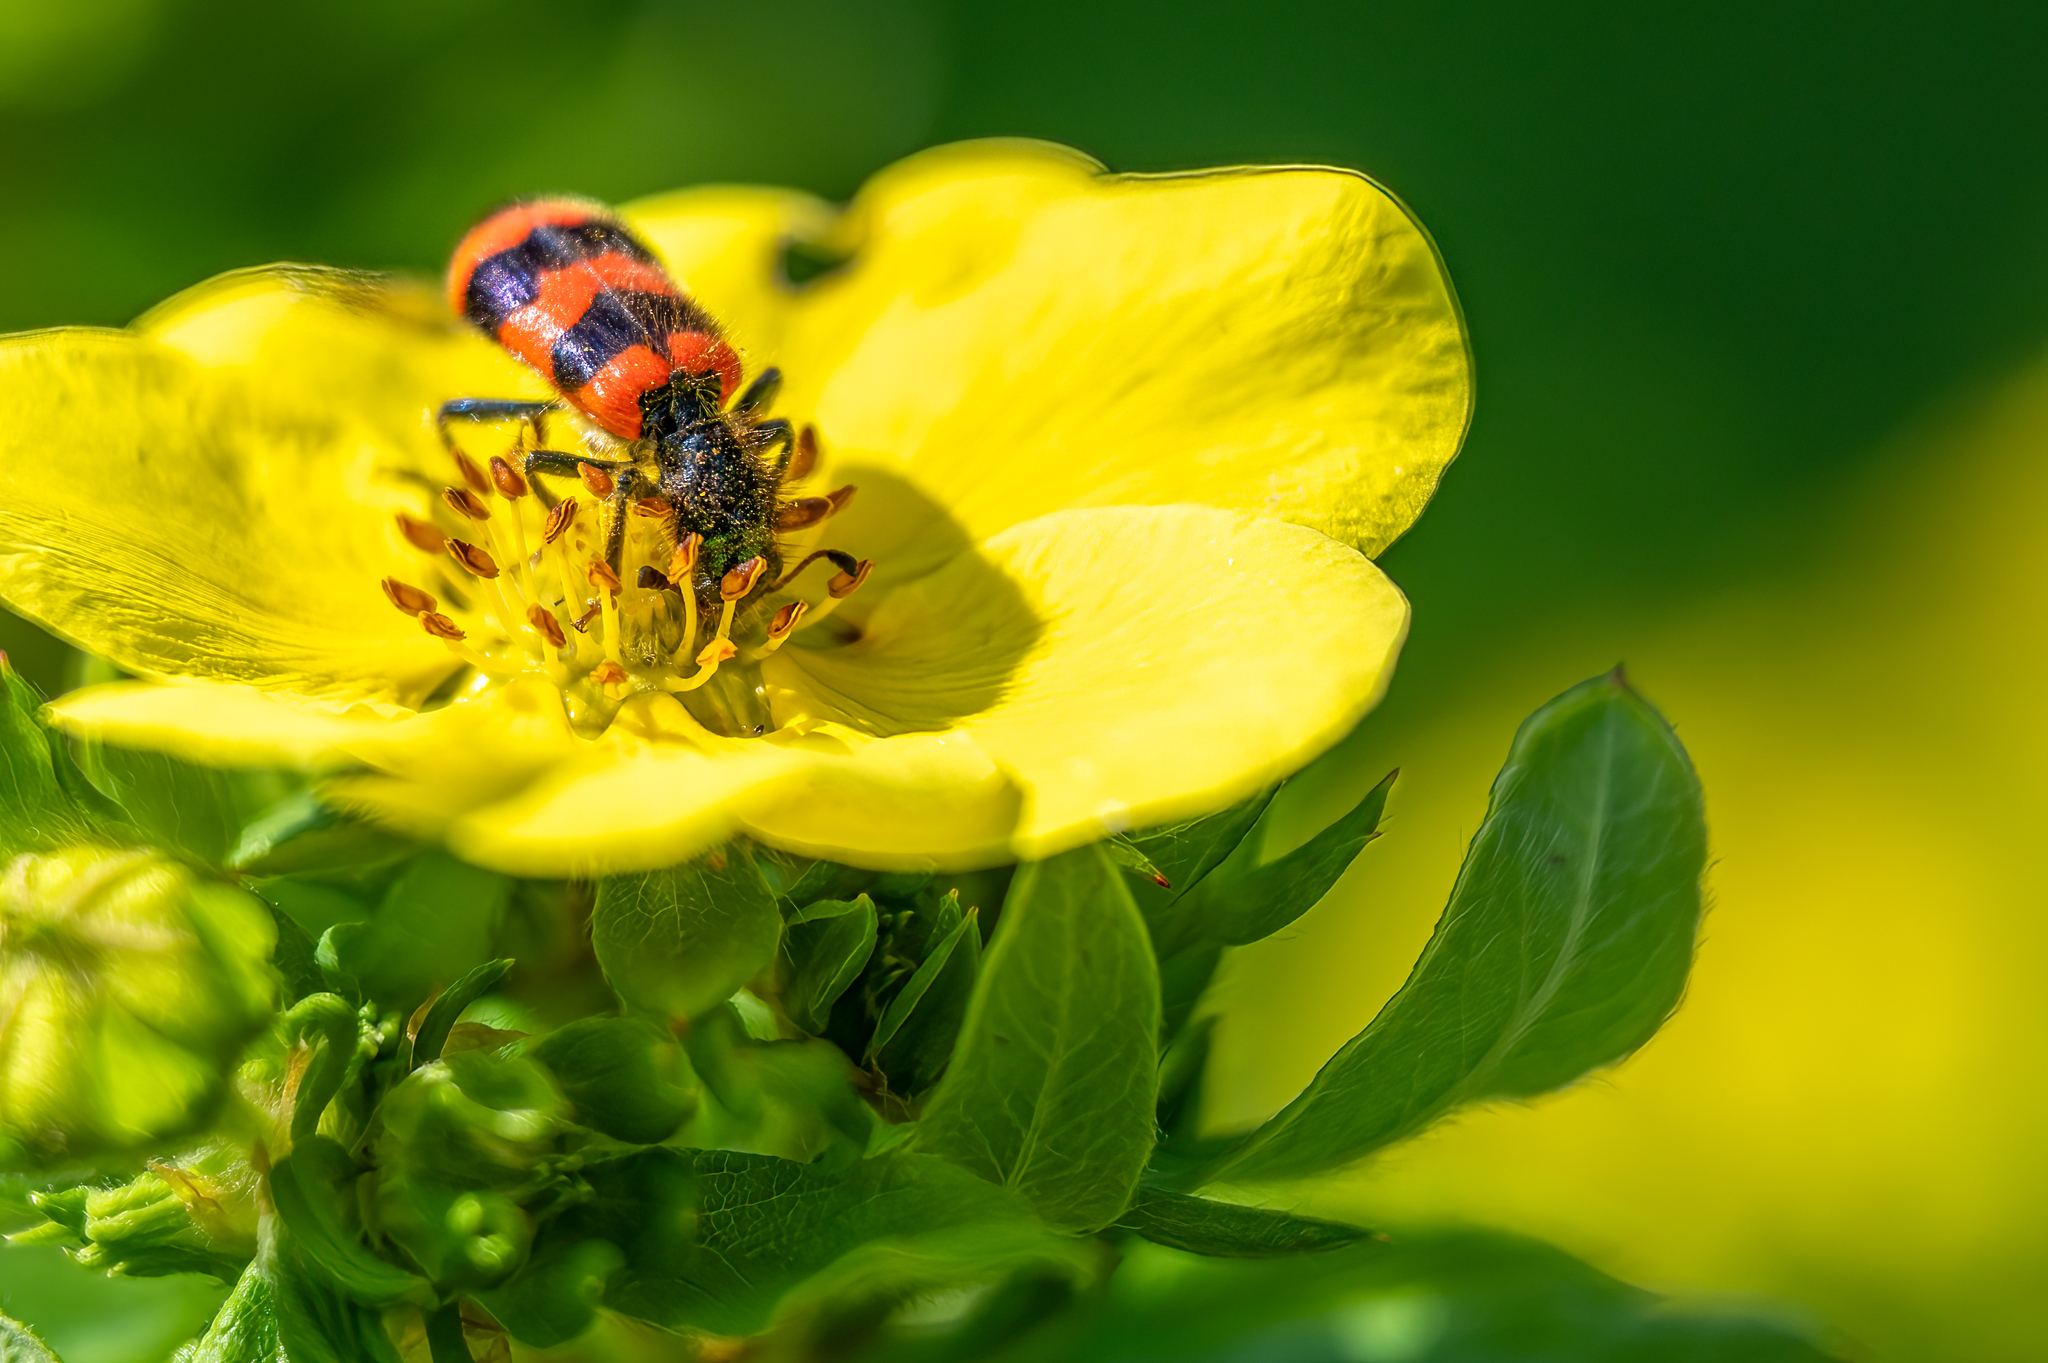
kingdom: Animalia
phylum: Arthropoda
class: Insecta
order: Coleoptera
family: Cleridae
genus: Trichodes
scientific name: Trichodes apiarius
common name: Bee-eating beetle
